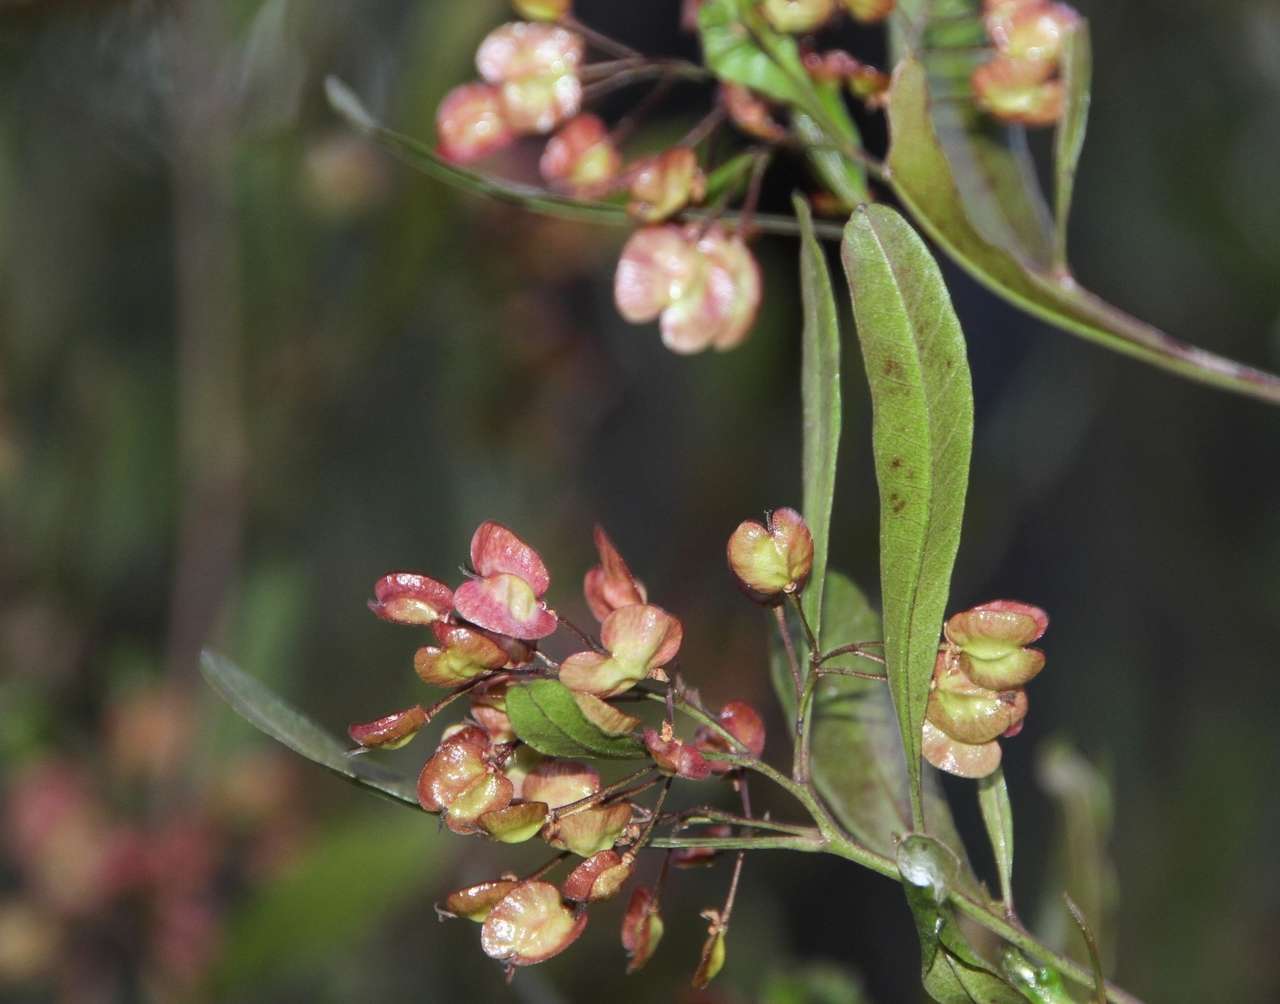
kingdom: Plantae
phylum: Tracheophyta
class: Magnoliopsida
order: Sapindales
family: Sapindaceae
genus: Dodonaea
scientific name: Dodonaea viscosa
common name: Hopbush
